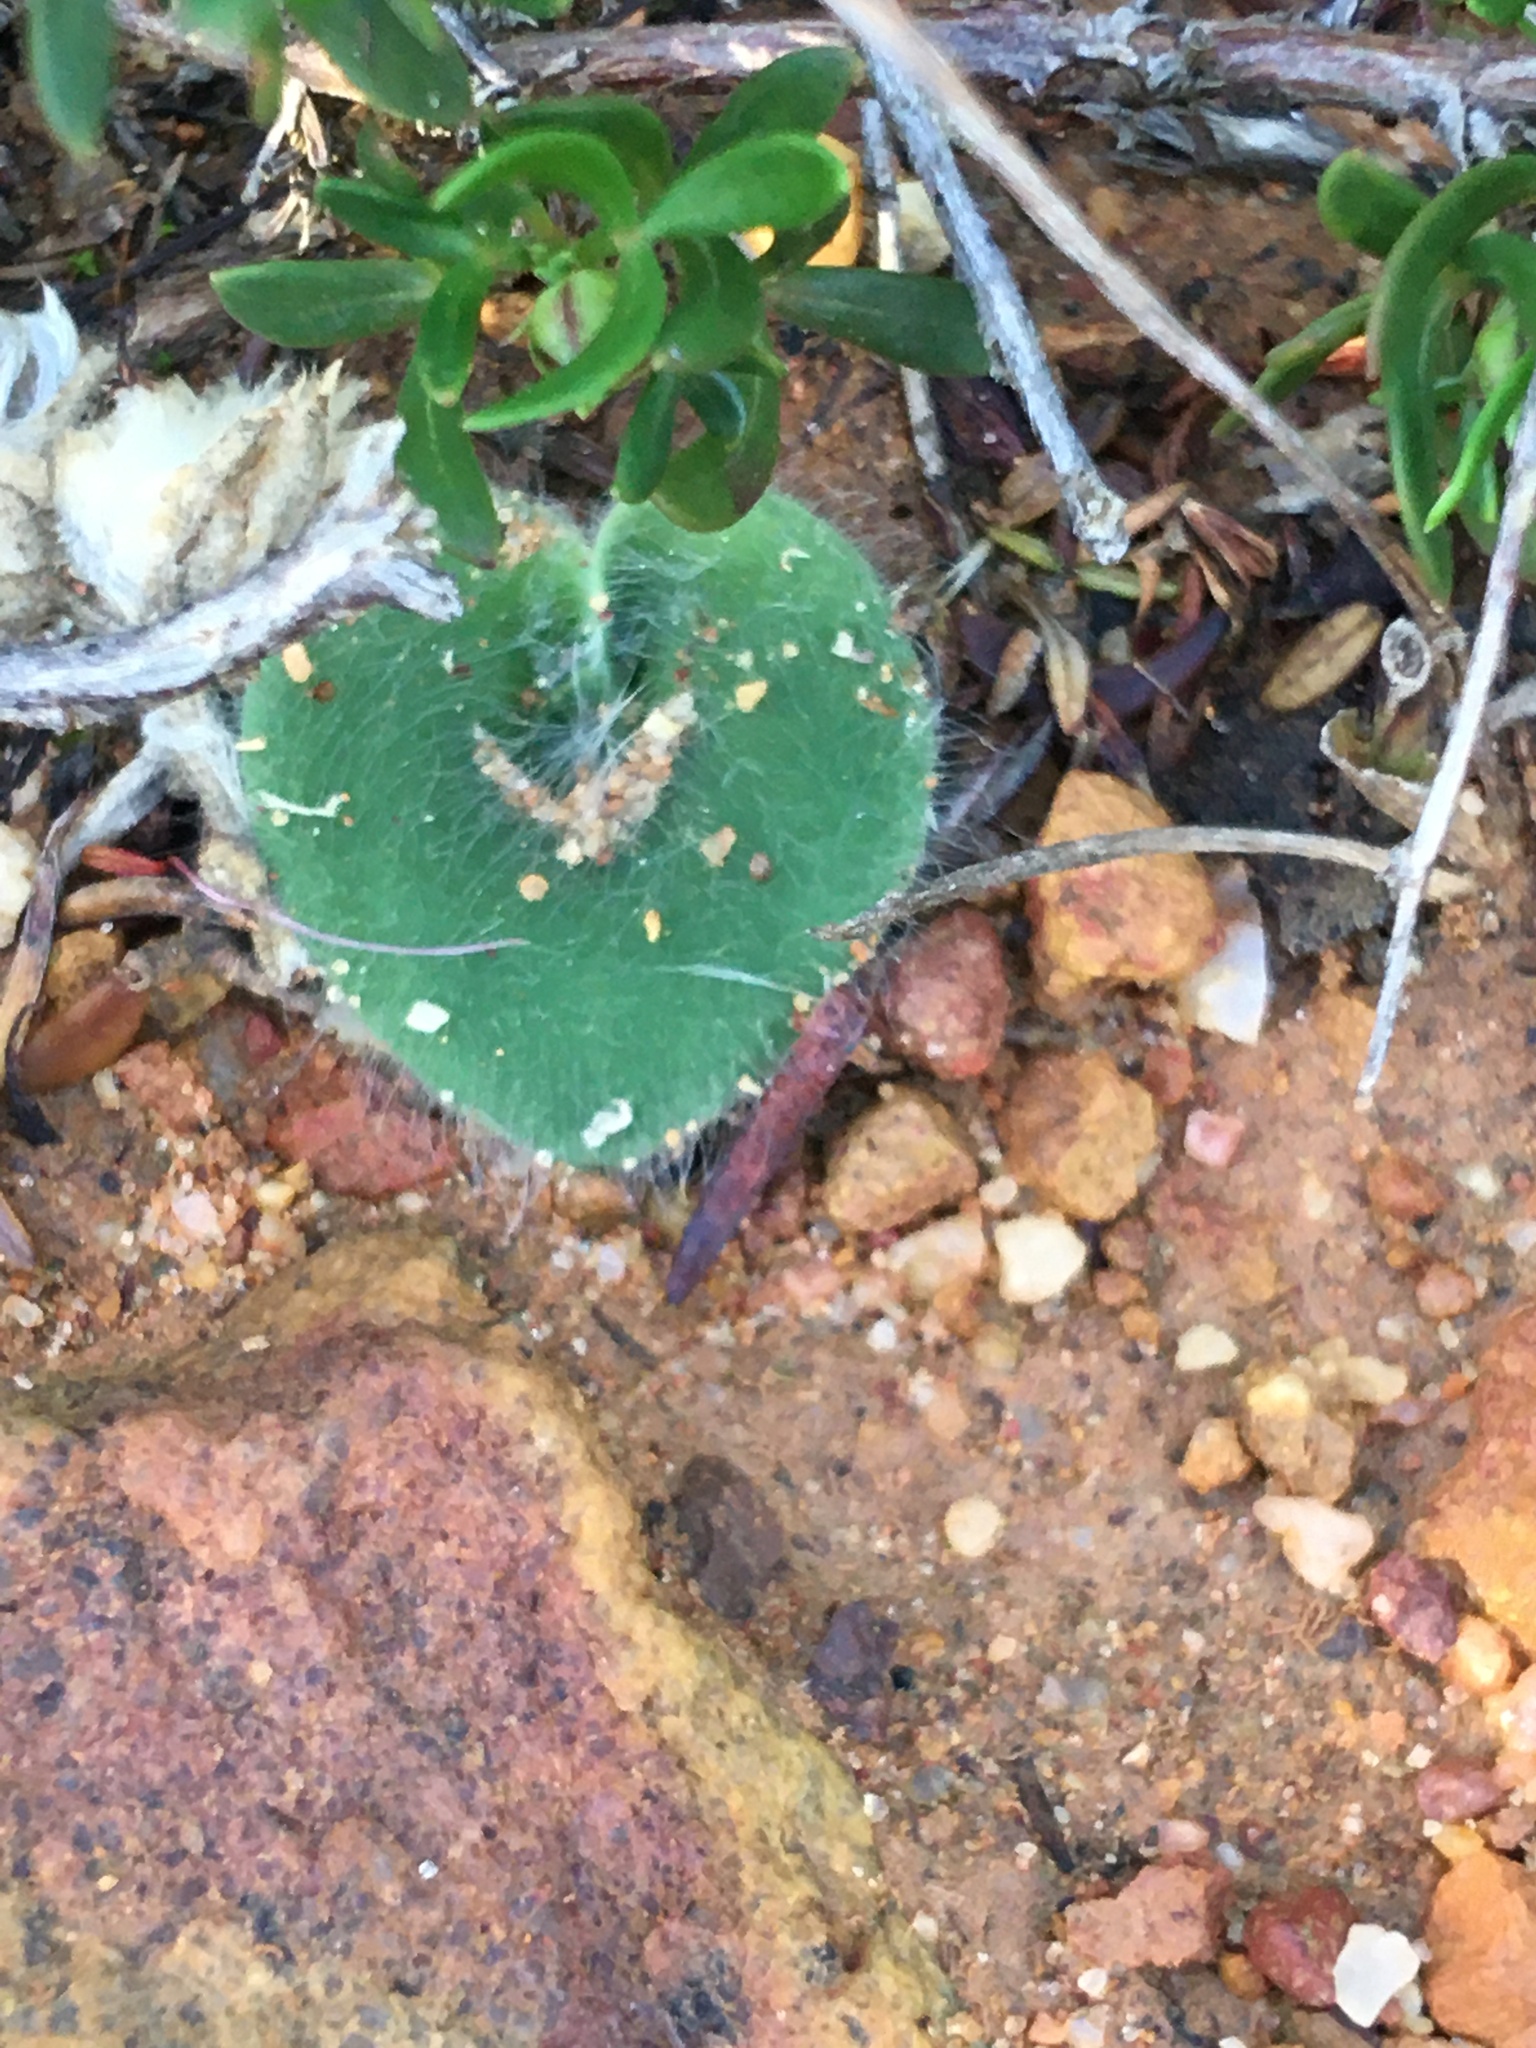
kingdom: Plantae
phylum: Tracheophyta
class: Liliopsida
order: Asparagales
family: Orchidaceae
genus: Holothrix
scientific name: Holothrix villosa
